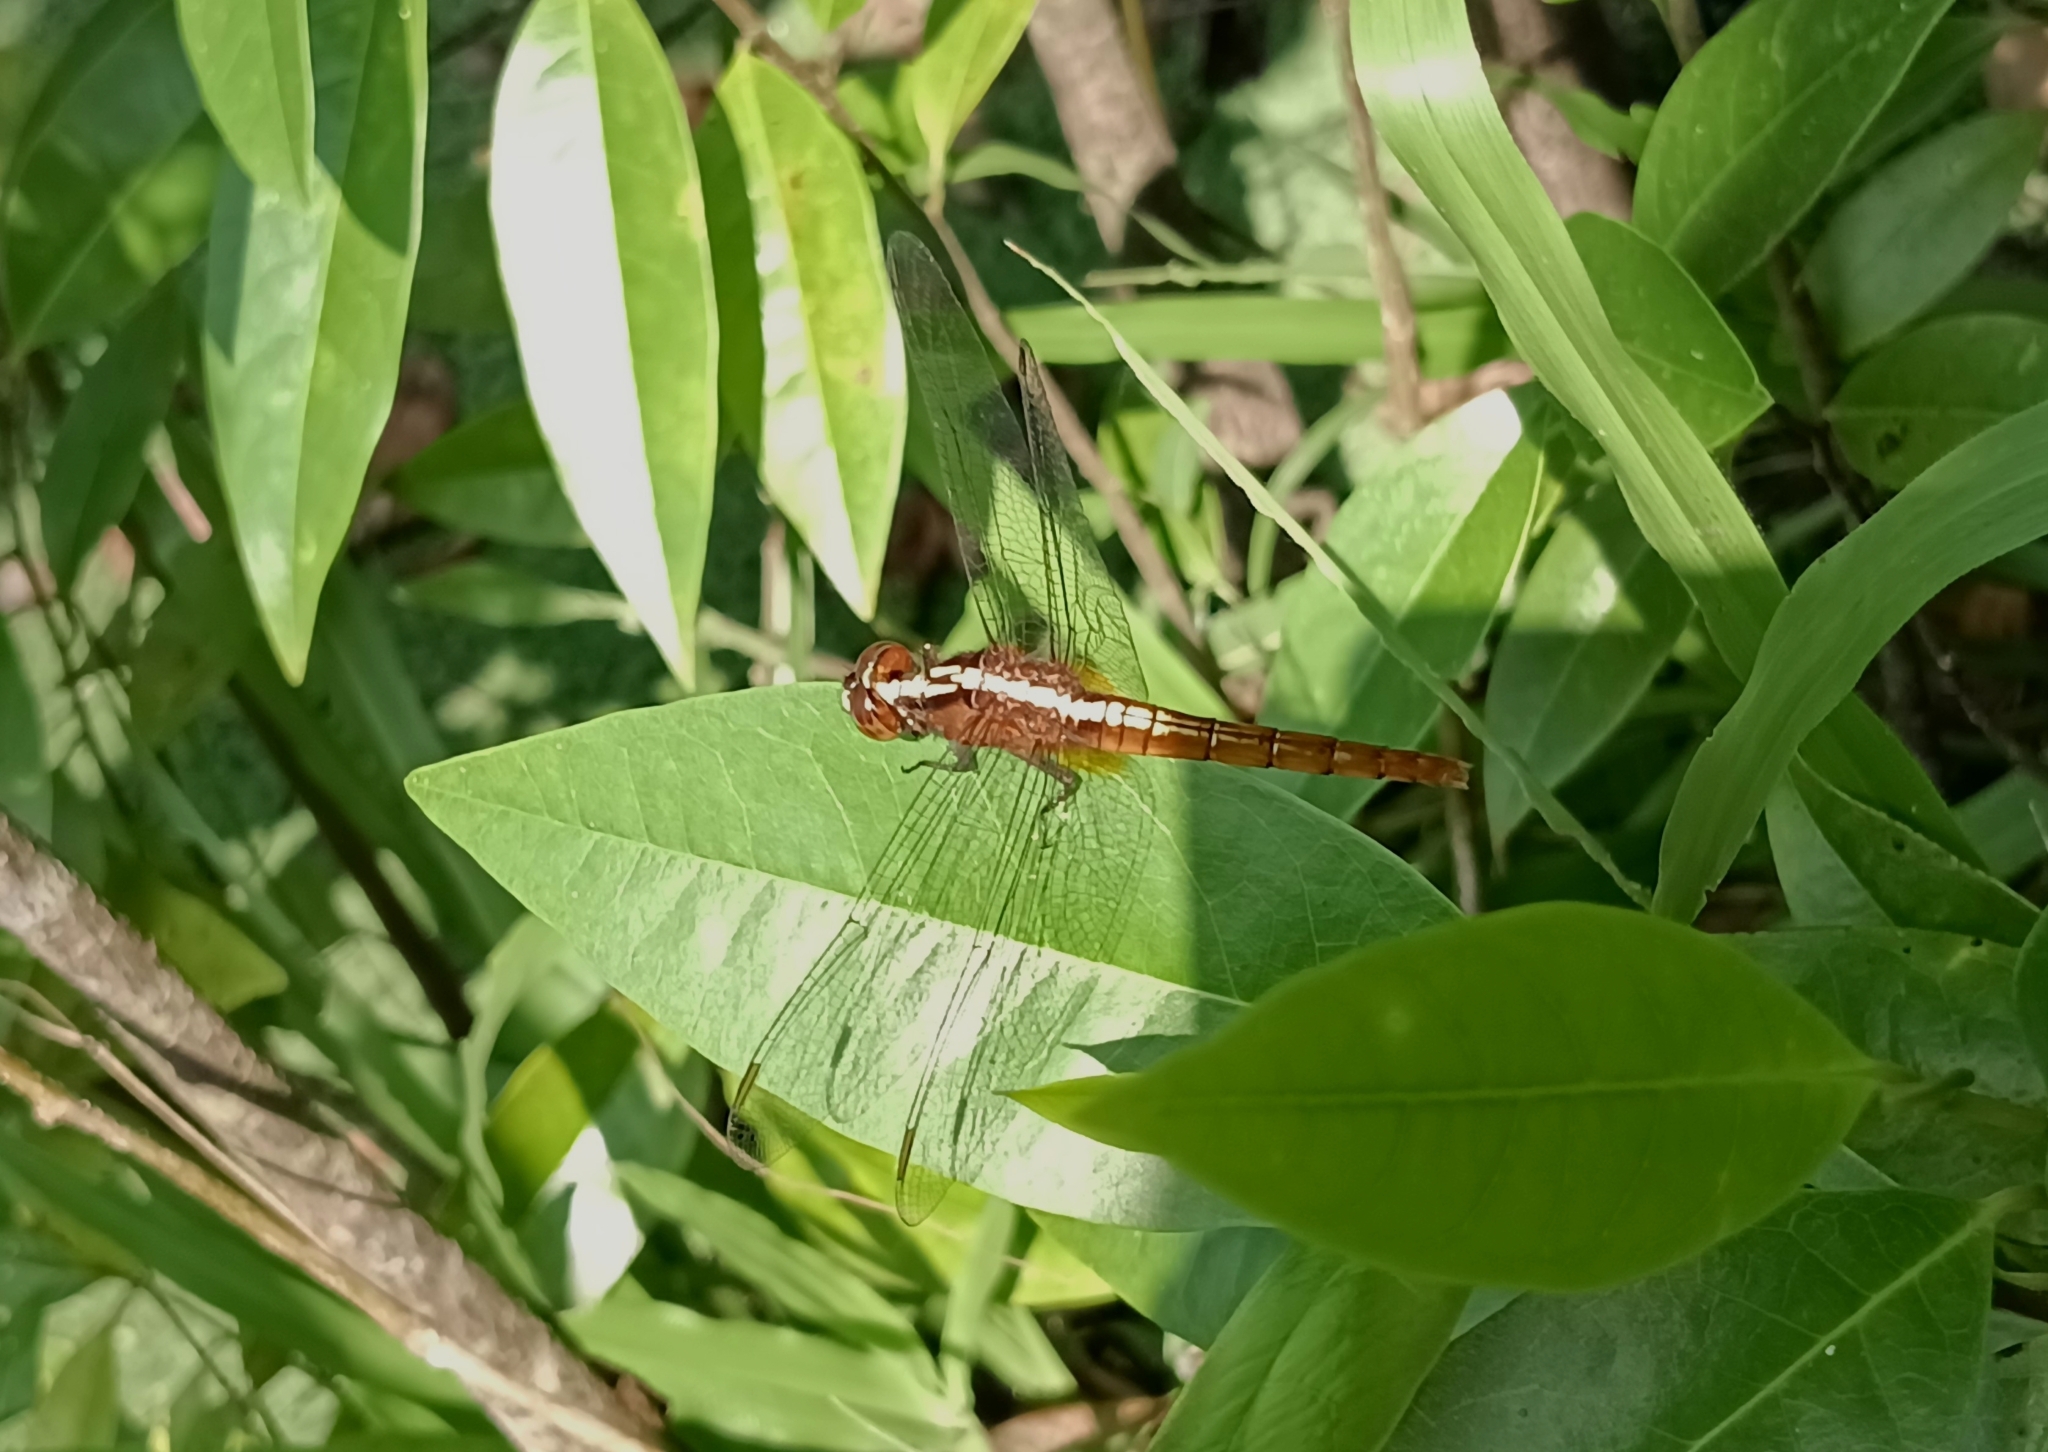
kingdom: Animalia
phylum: Arthropoda
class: Insecta
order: Odonata
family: Libellulidae
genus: Rhodothemis
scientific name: Rhodothemis rufa
